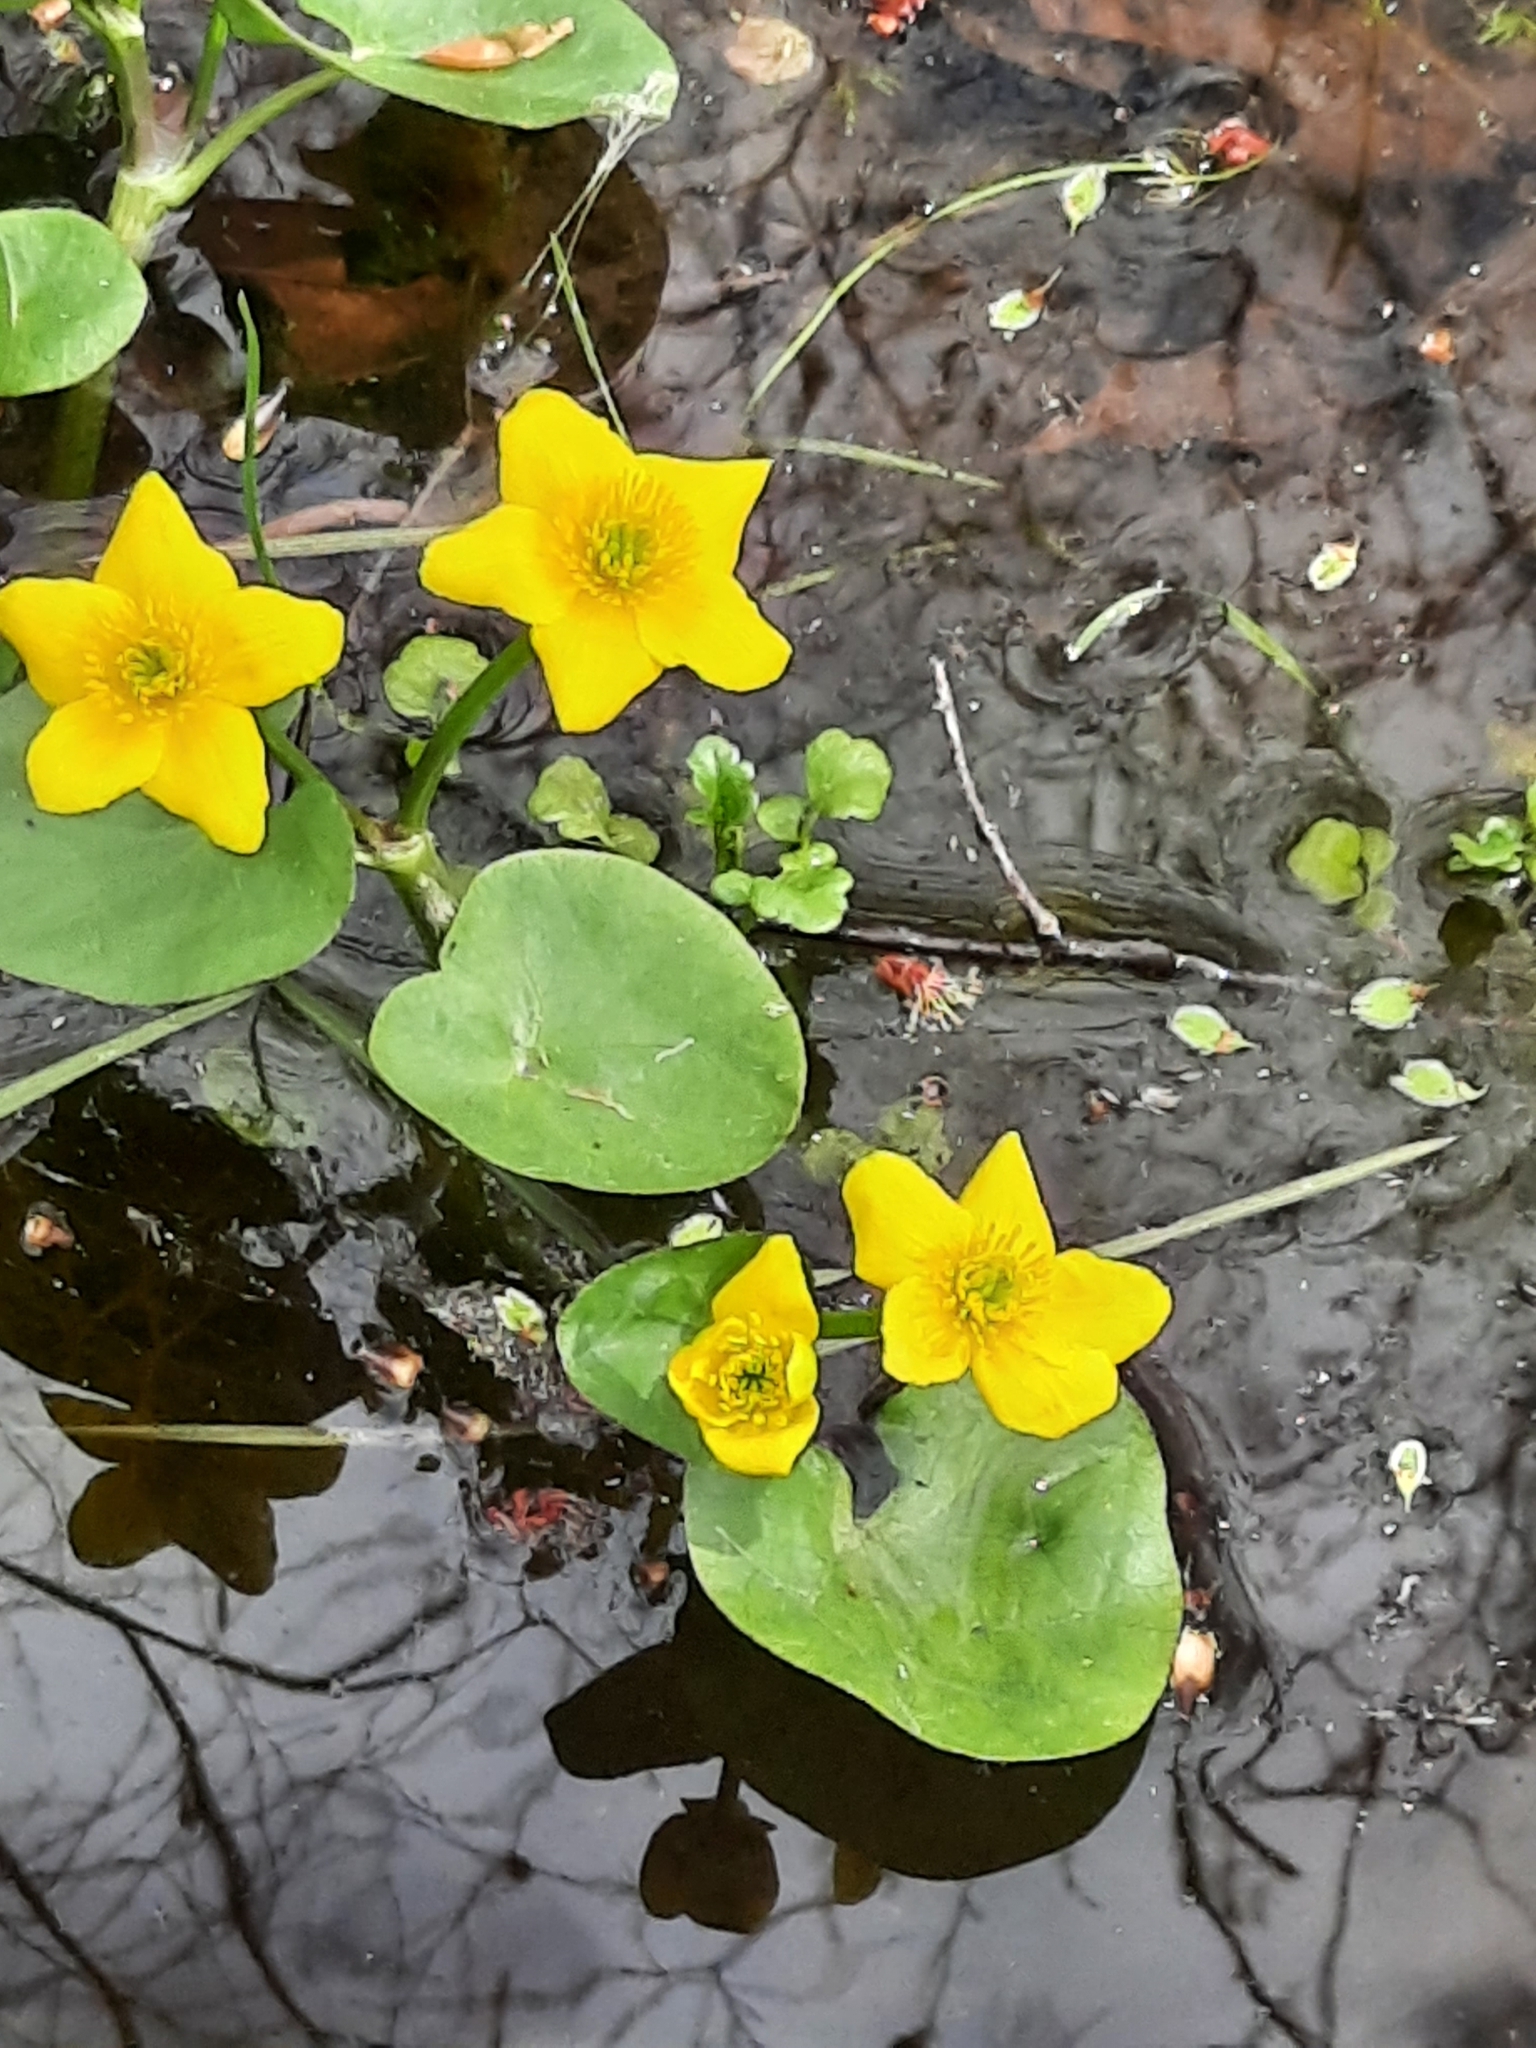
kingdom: Plantae
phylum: Tracheophyta
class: Magnoliopsida
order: Ranunculales
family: Ranunculaceae
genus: Caltha
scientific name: Caltha palustris
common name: Marsh marigold
